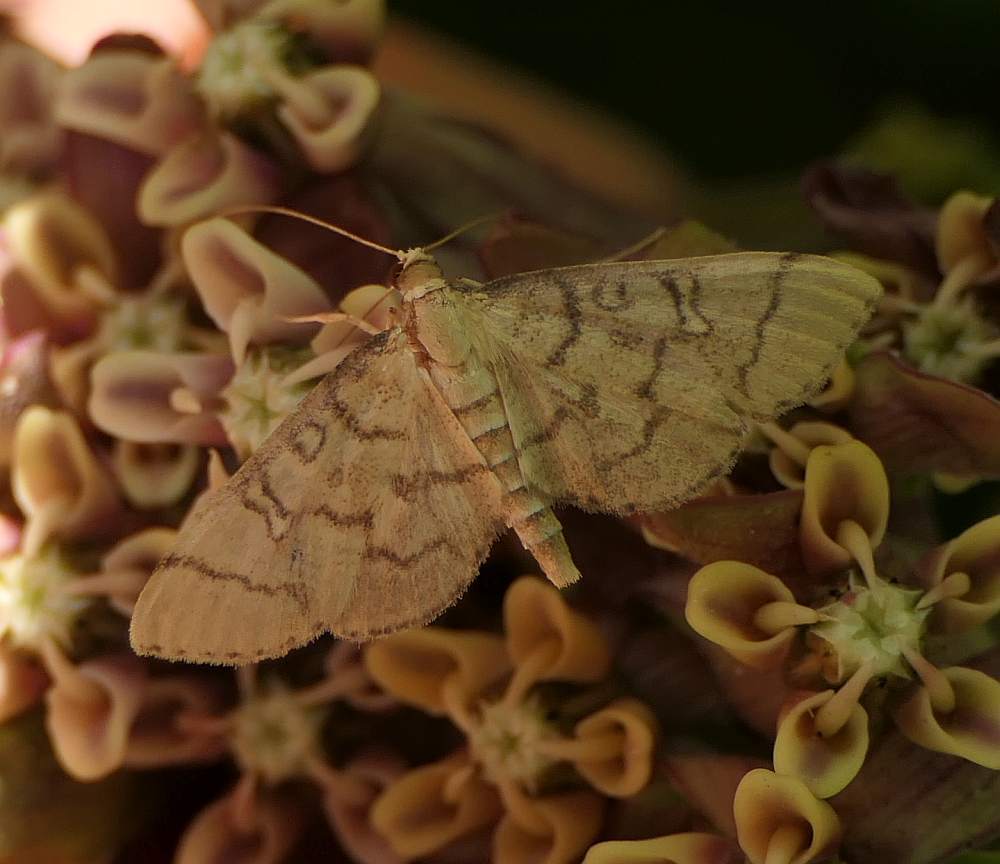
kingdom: Animalia
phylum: Arthropoda
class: Insecta
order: Lepidoptera
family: Crambidae
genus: Lamprosema
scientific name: Lamprosema Blepharomastix ranalis
